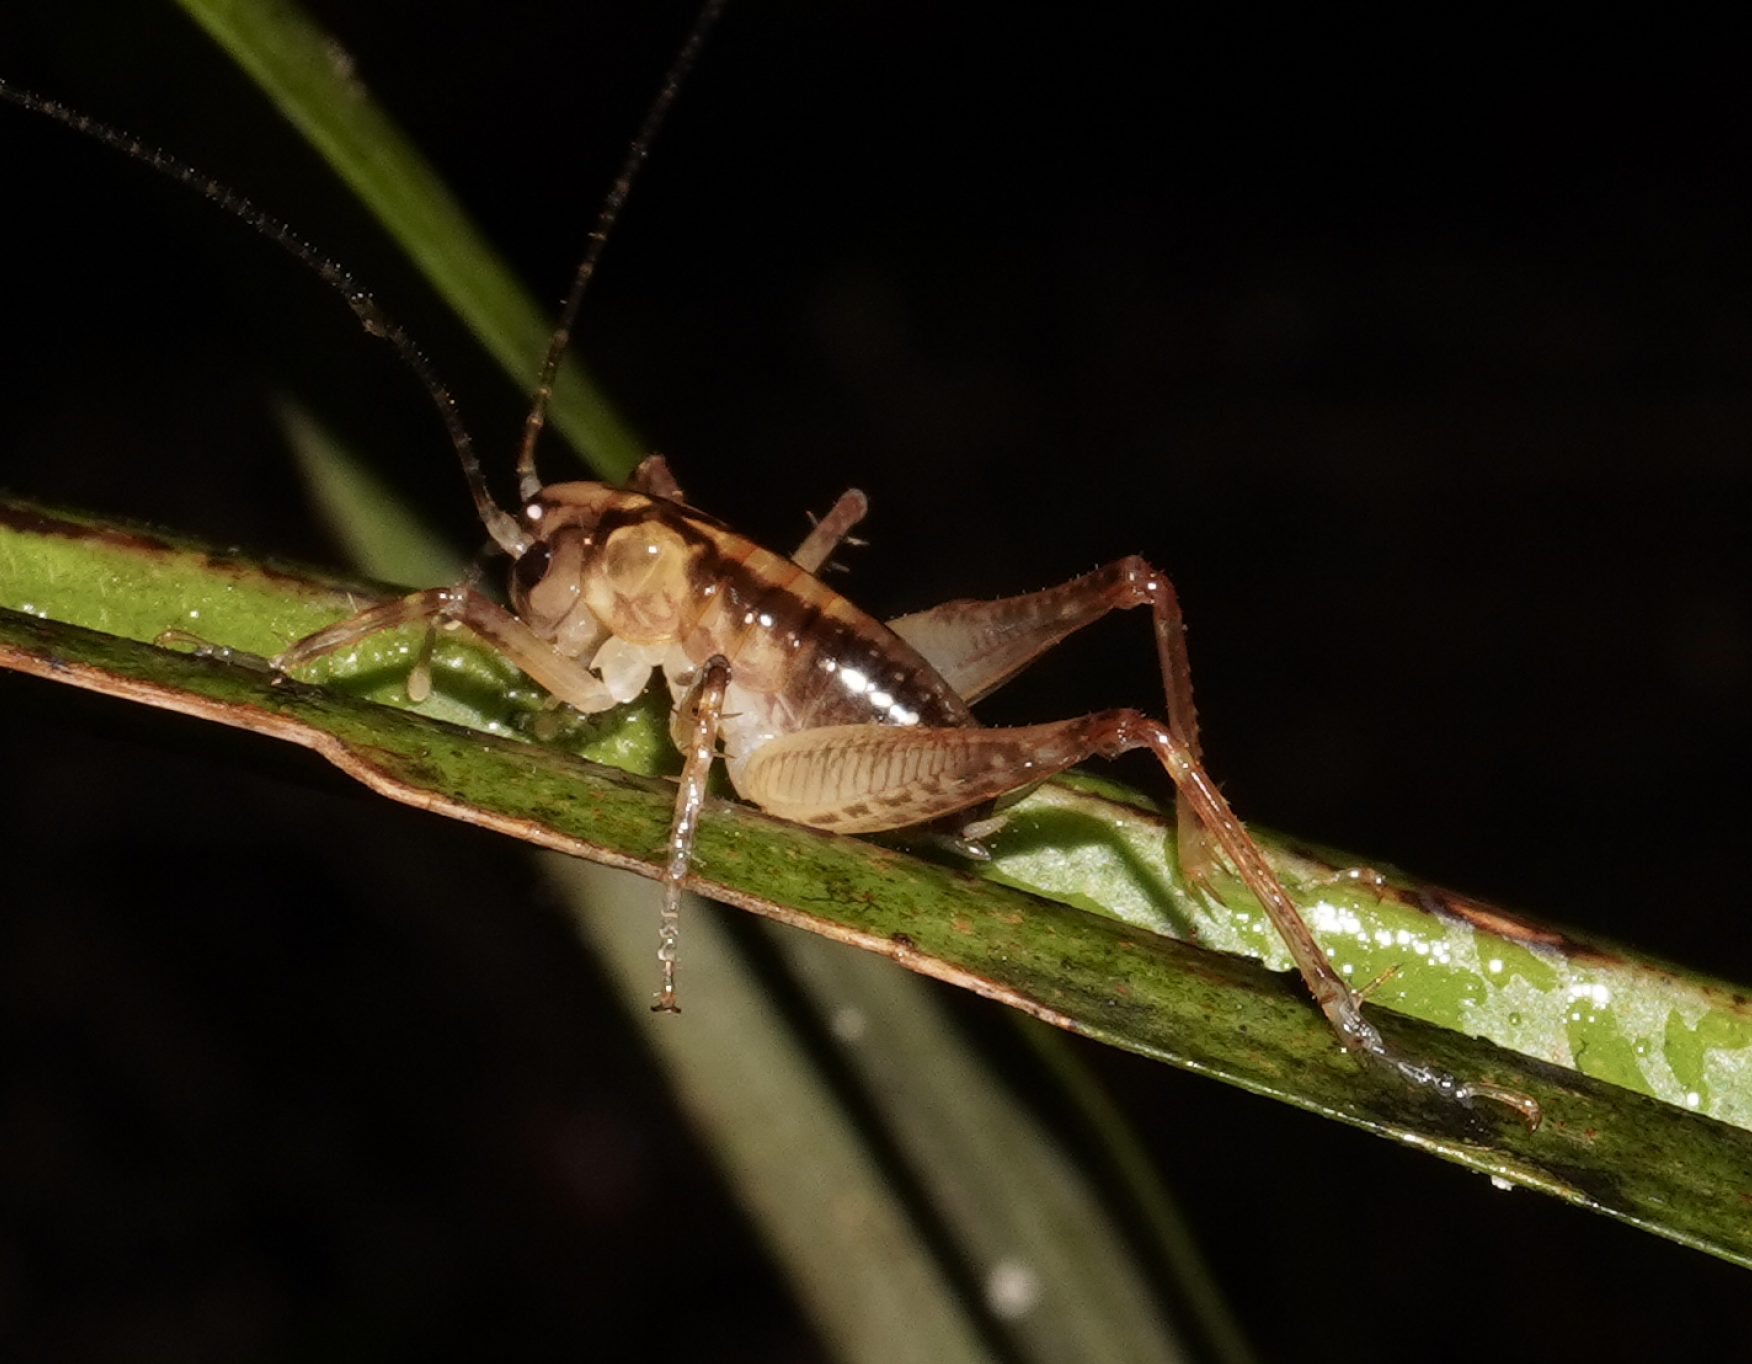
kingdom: Animalia
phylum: Arthropoda
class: Insecta
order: Orthoptera
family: Anostostomatidae
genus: Hemiandrus
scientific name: Hemiandrus jacinda
